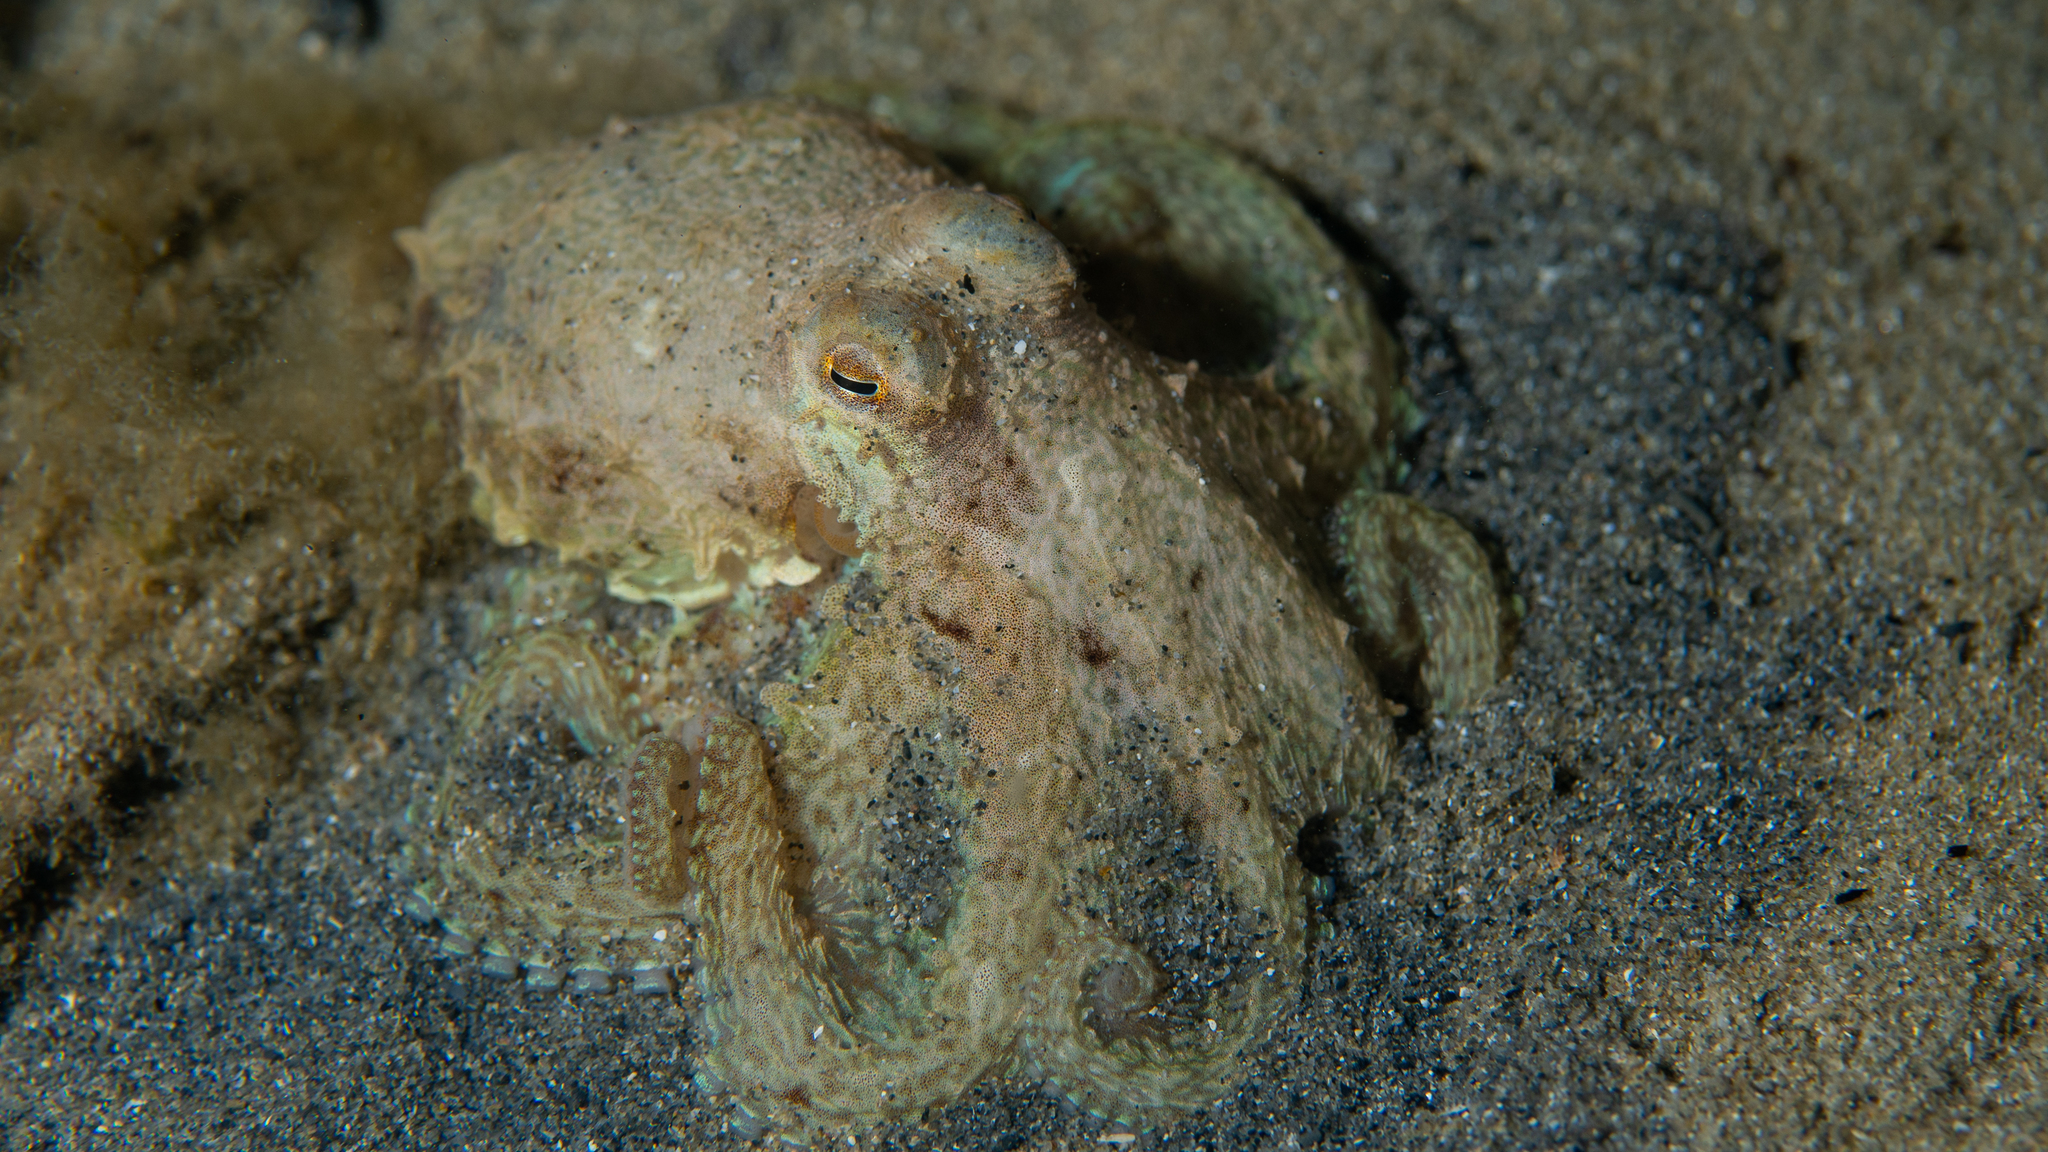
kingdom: Animalia
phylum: Mollusca
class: Cephalopoda
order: Octopoda
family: Octopodidae
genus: Octopus
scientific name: Octopus berrima
